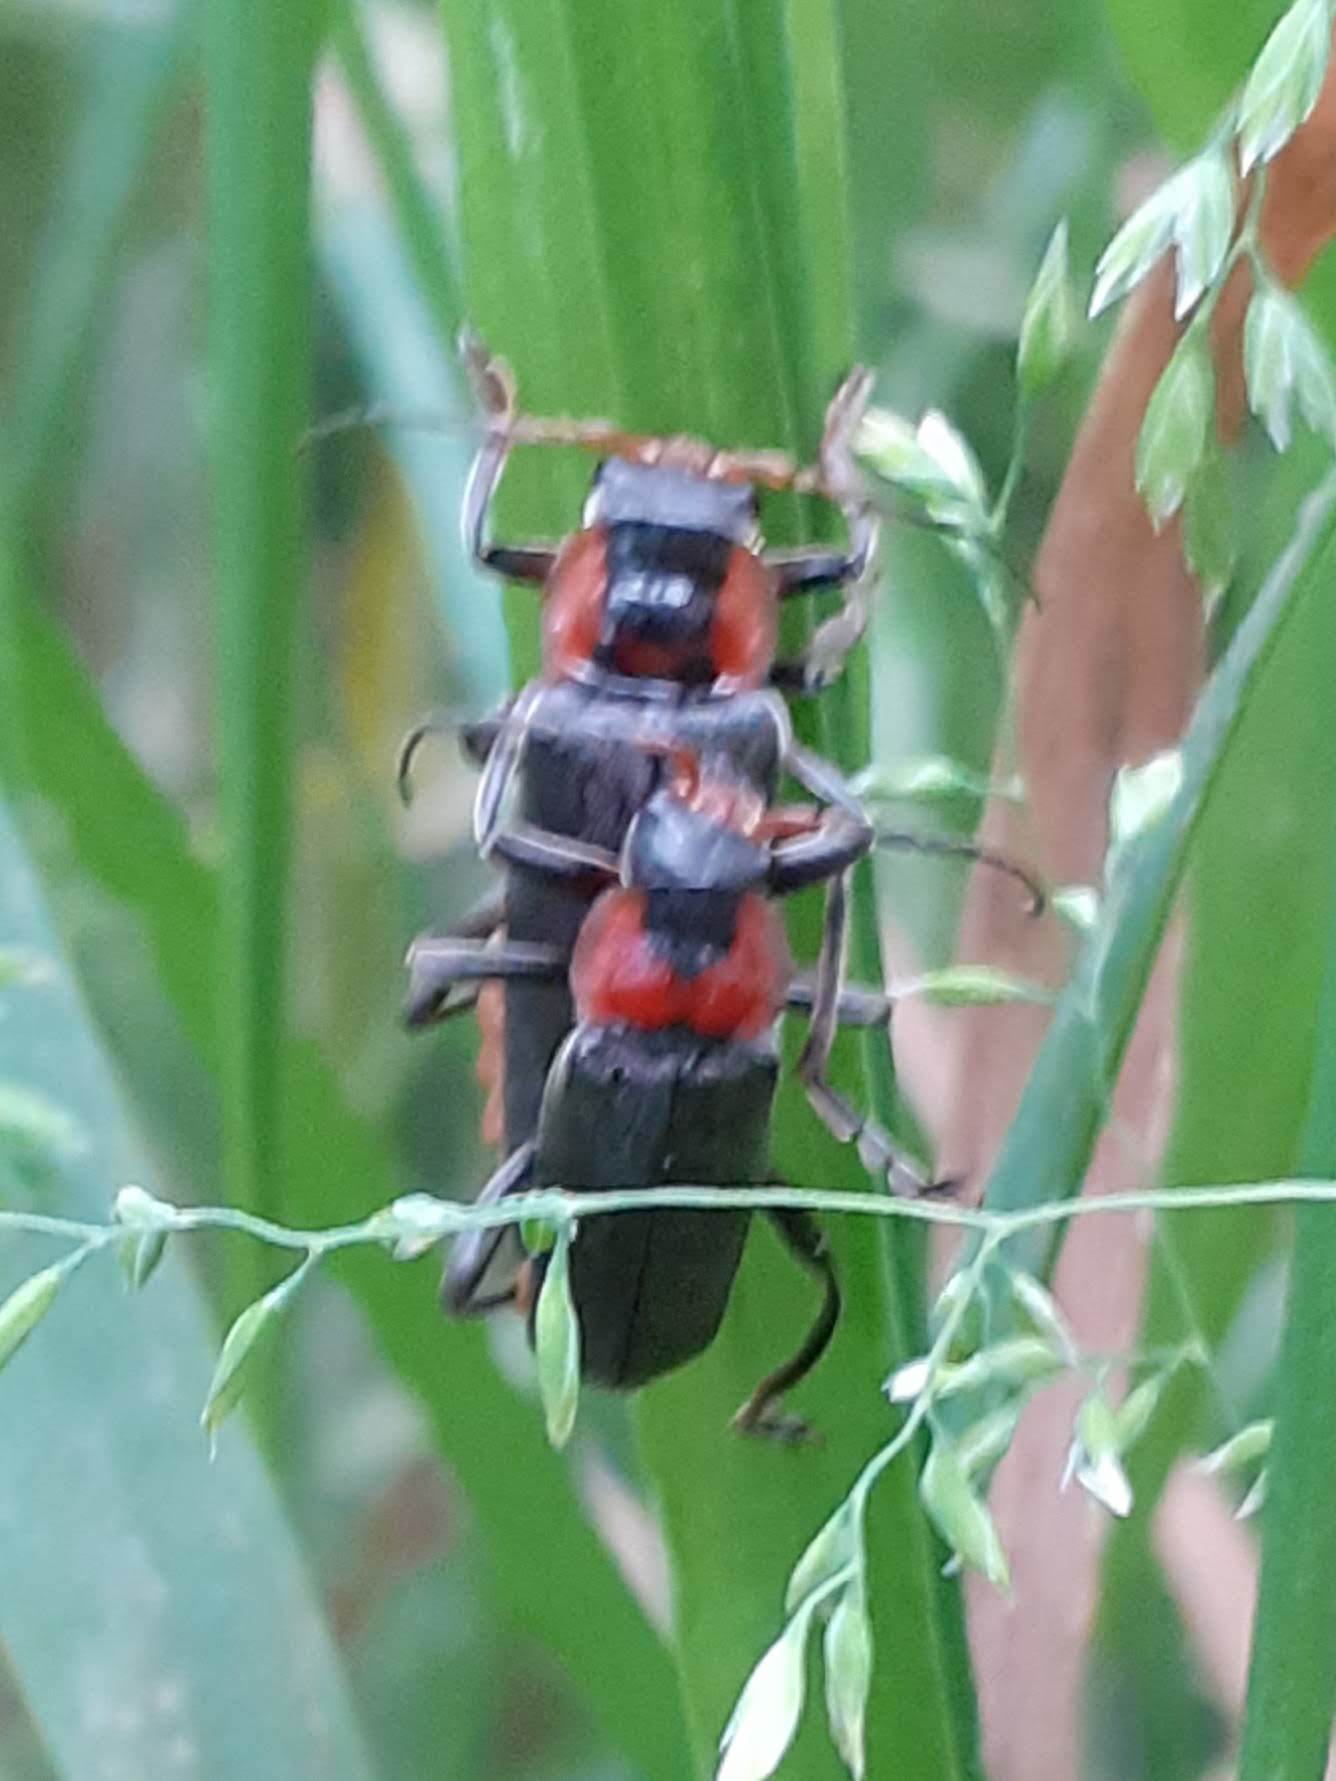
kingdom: Animalia
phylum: Arthropoda
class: Insecta
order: Coleoptera
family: Cantharidae
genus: Cantharis
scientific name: Cantharis fusca
